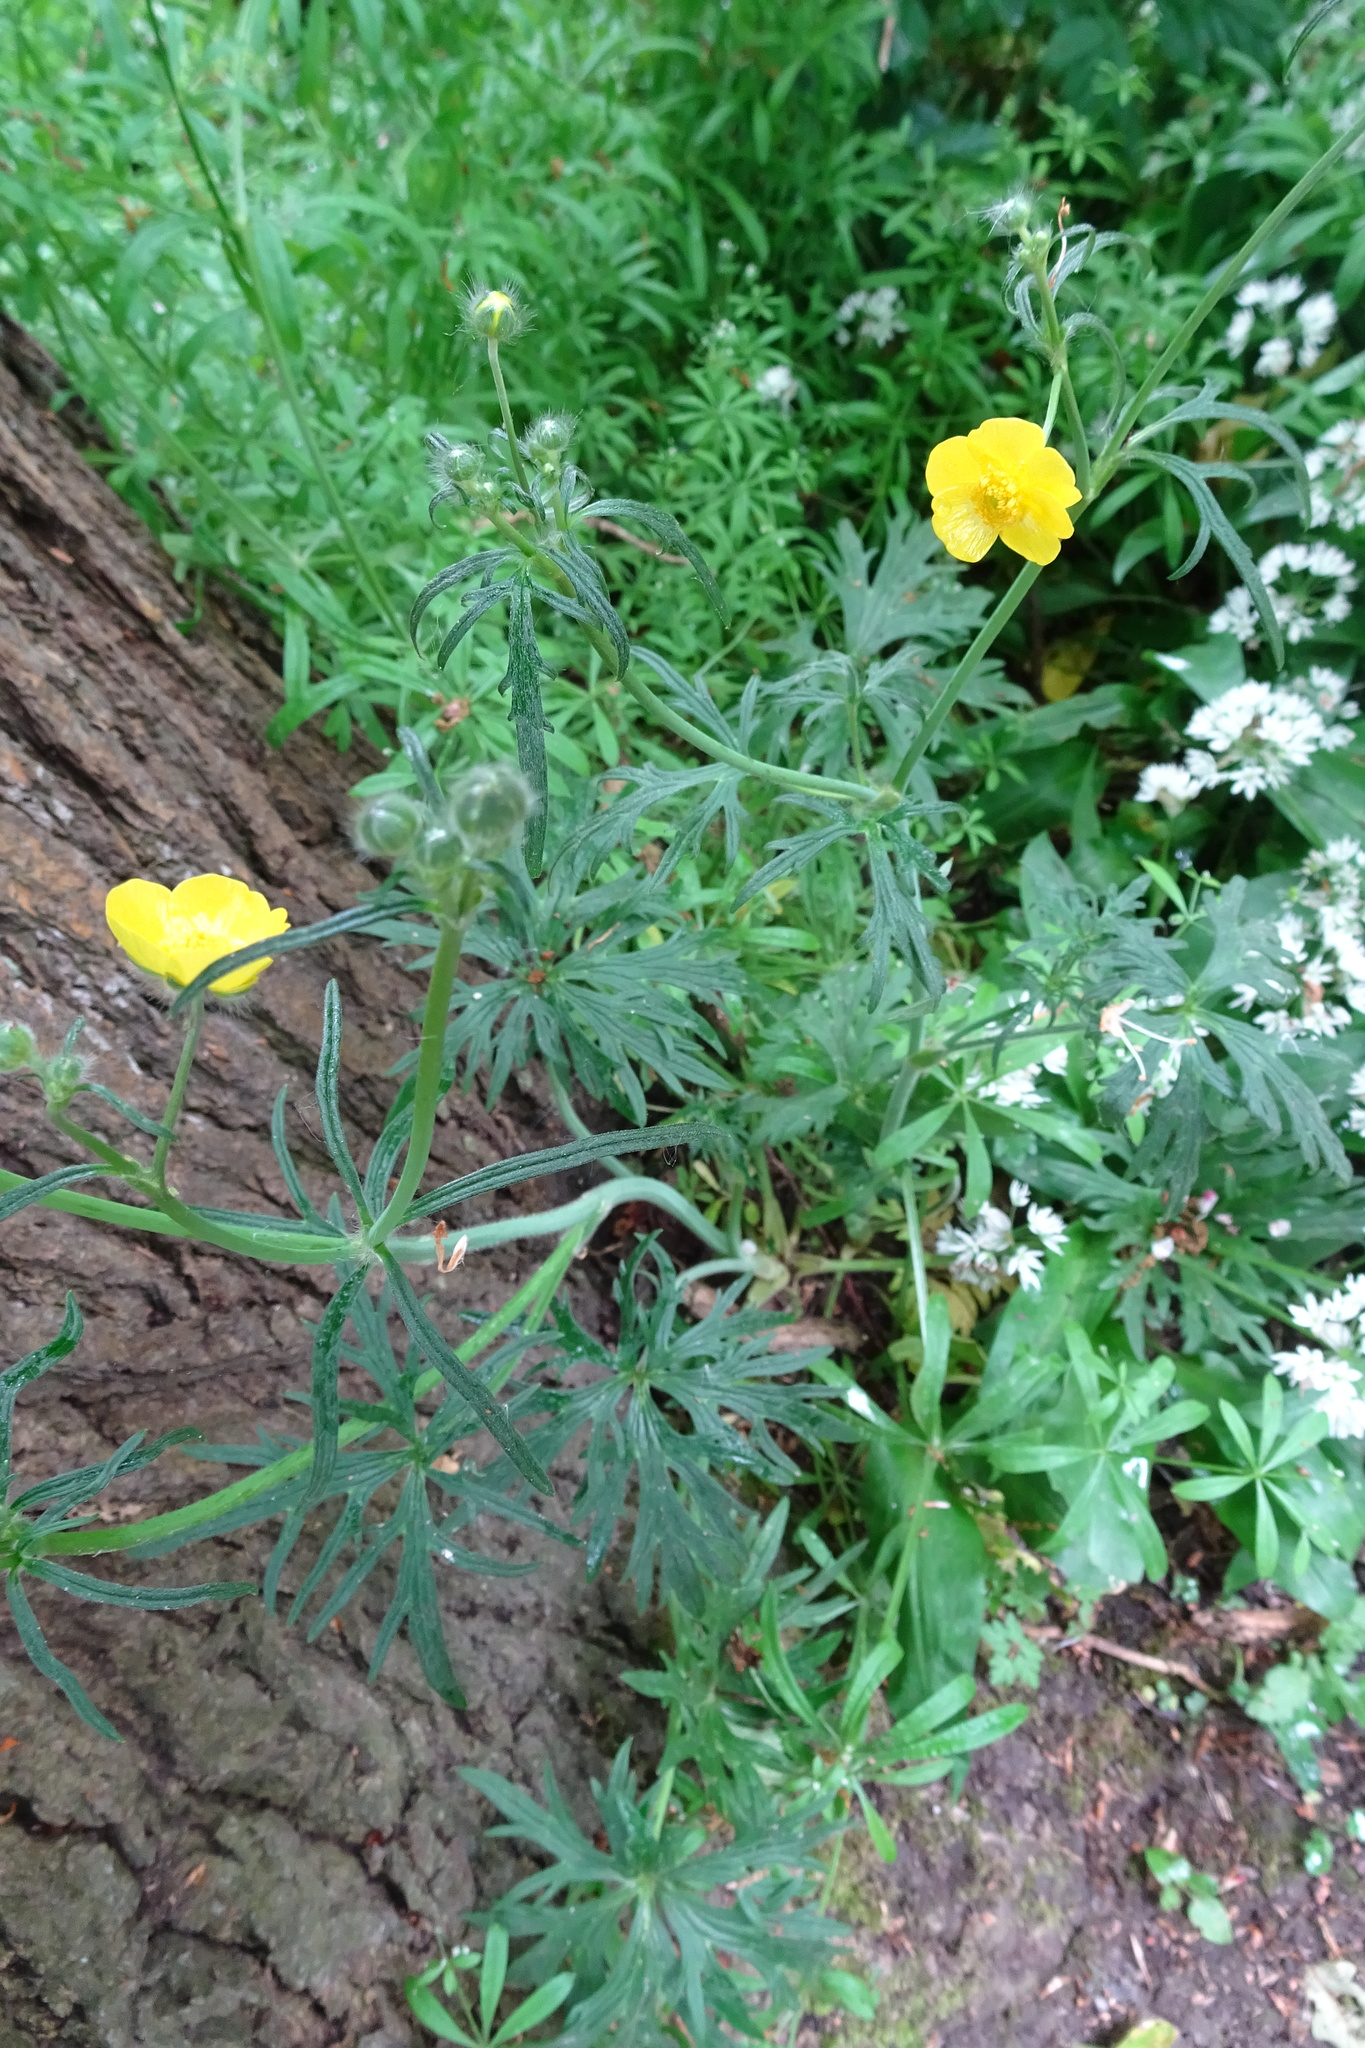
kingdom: Plantae
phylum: Tracheophyta
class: Magnoliopsida
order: Ranunculales
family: Ranunculaceae
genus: Ranunculus
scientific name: Ranunculus acris
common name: Meadow buttercup
